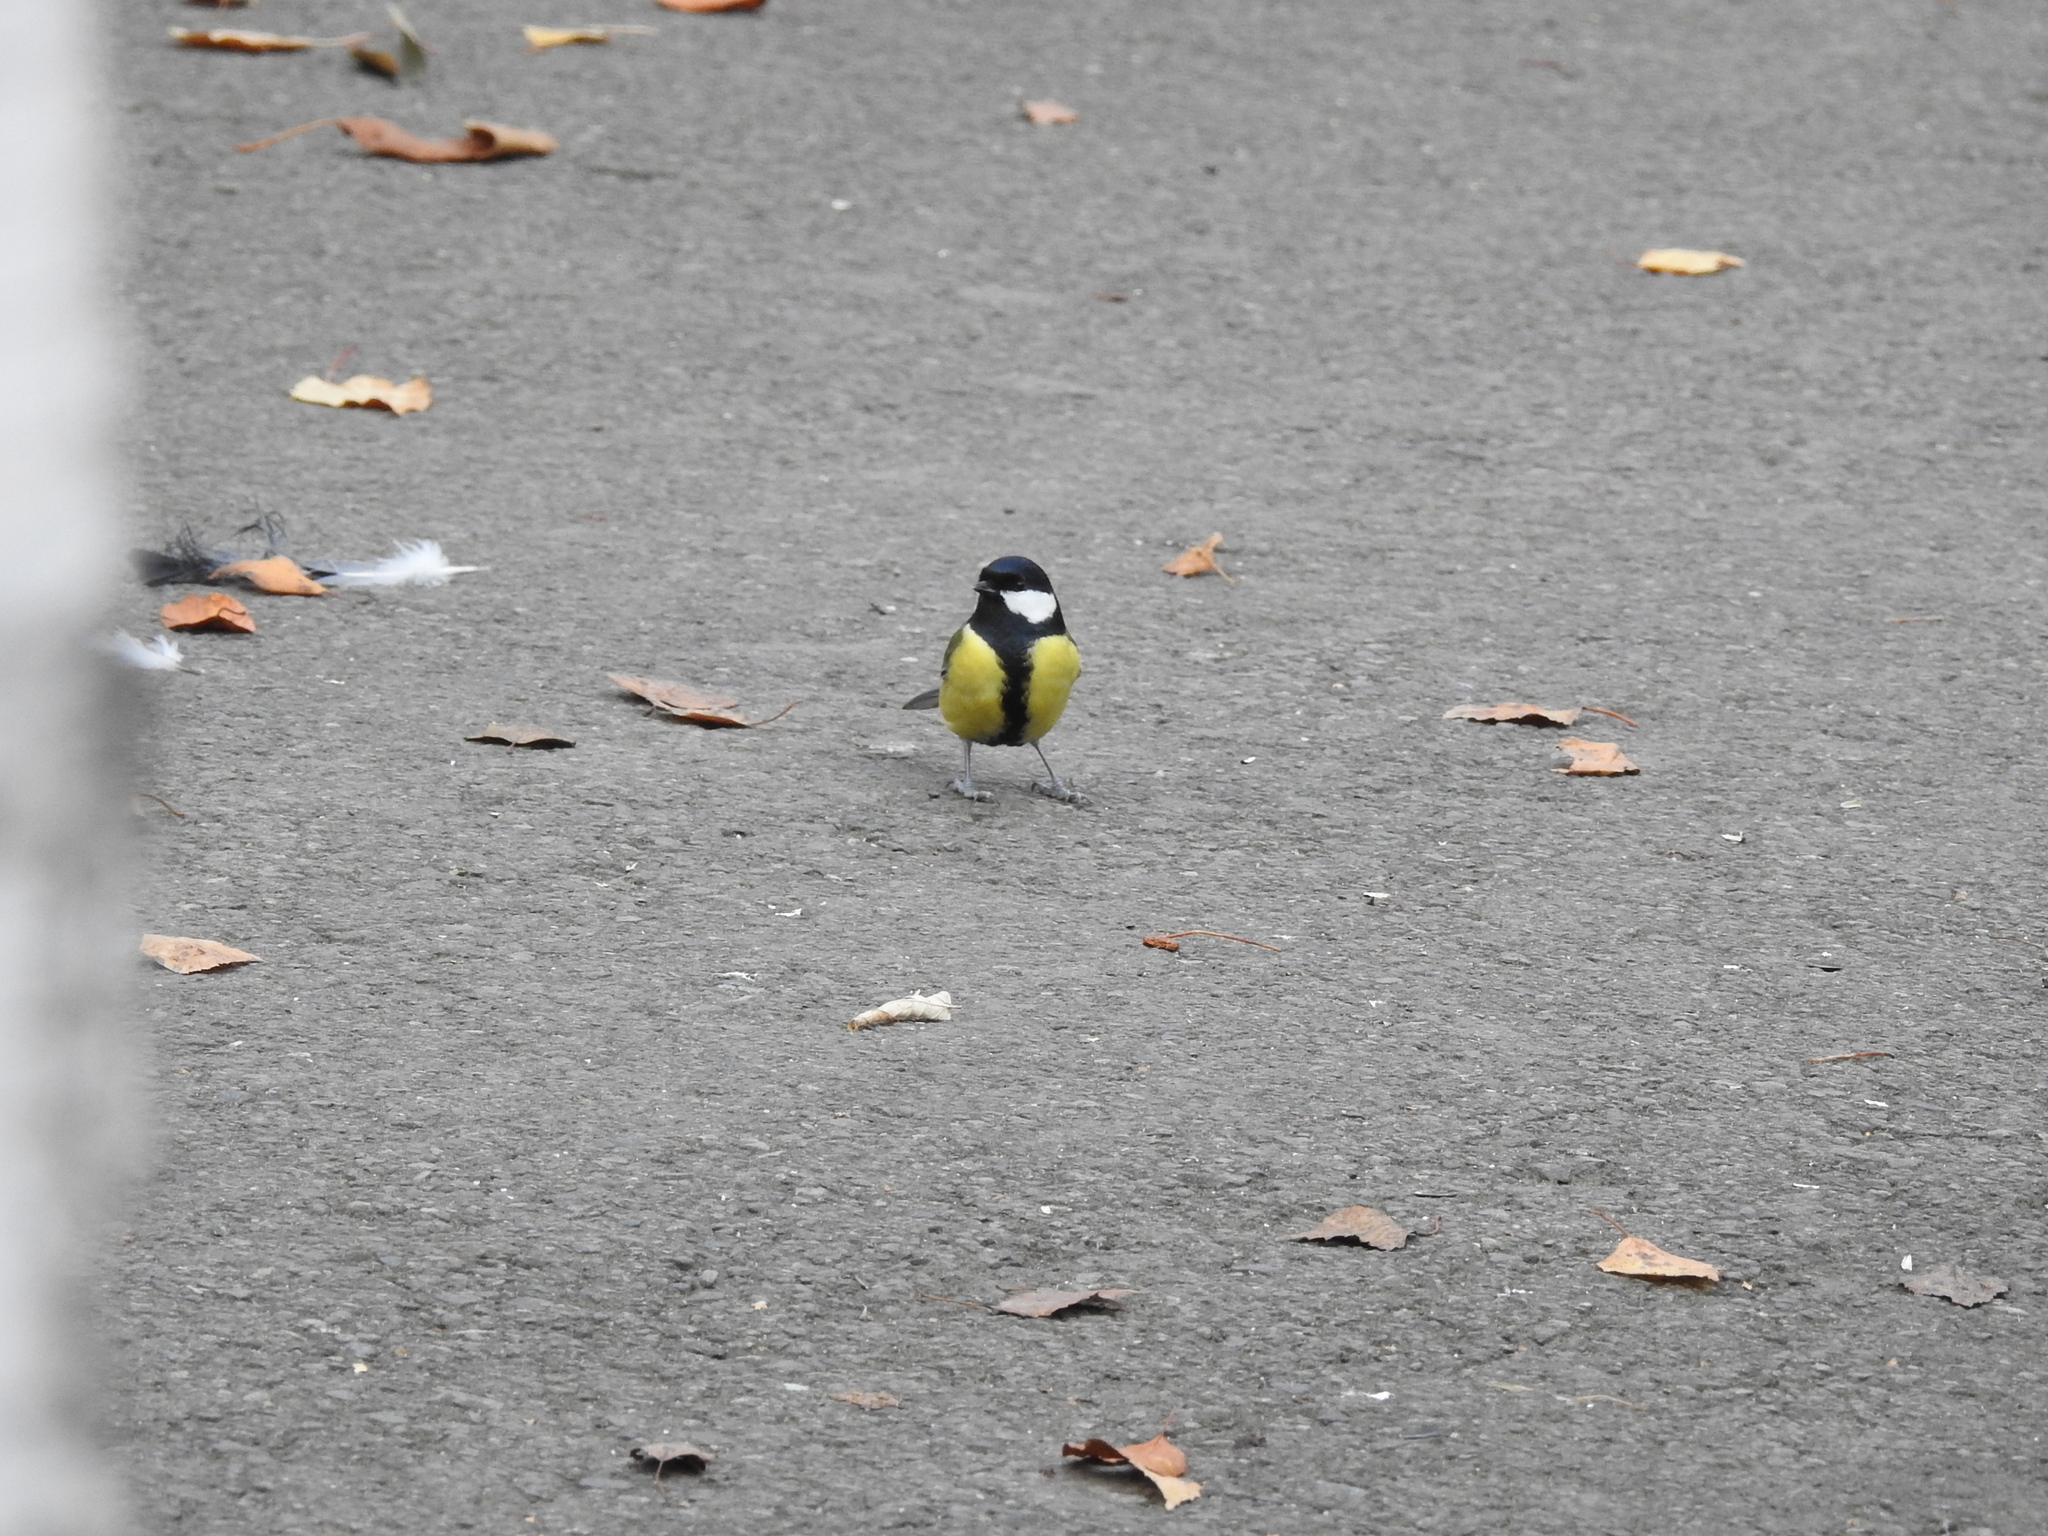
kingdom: Animalia
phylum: Chordata
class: Aves
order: Passeriformes
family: Paridae
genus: Parus
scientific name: Parus major
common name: Great tit
